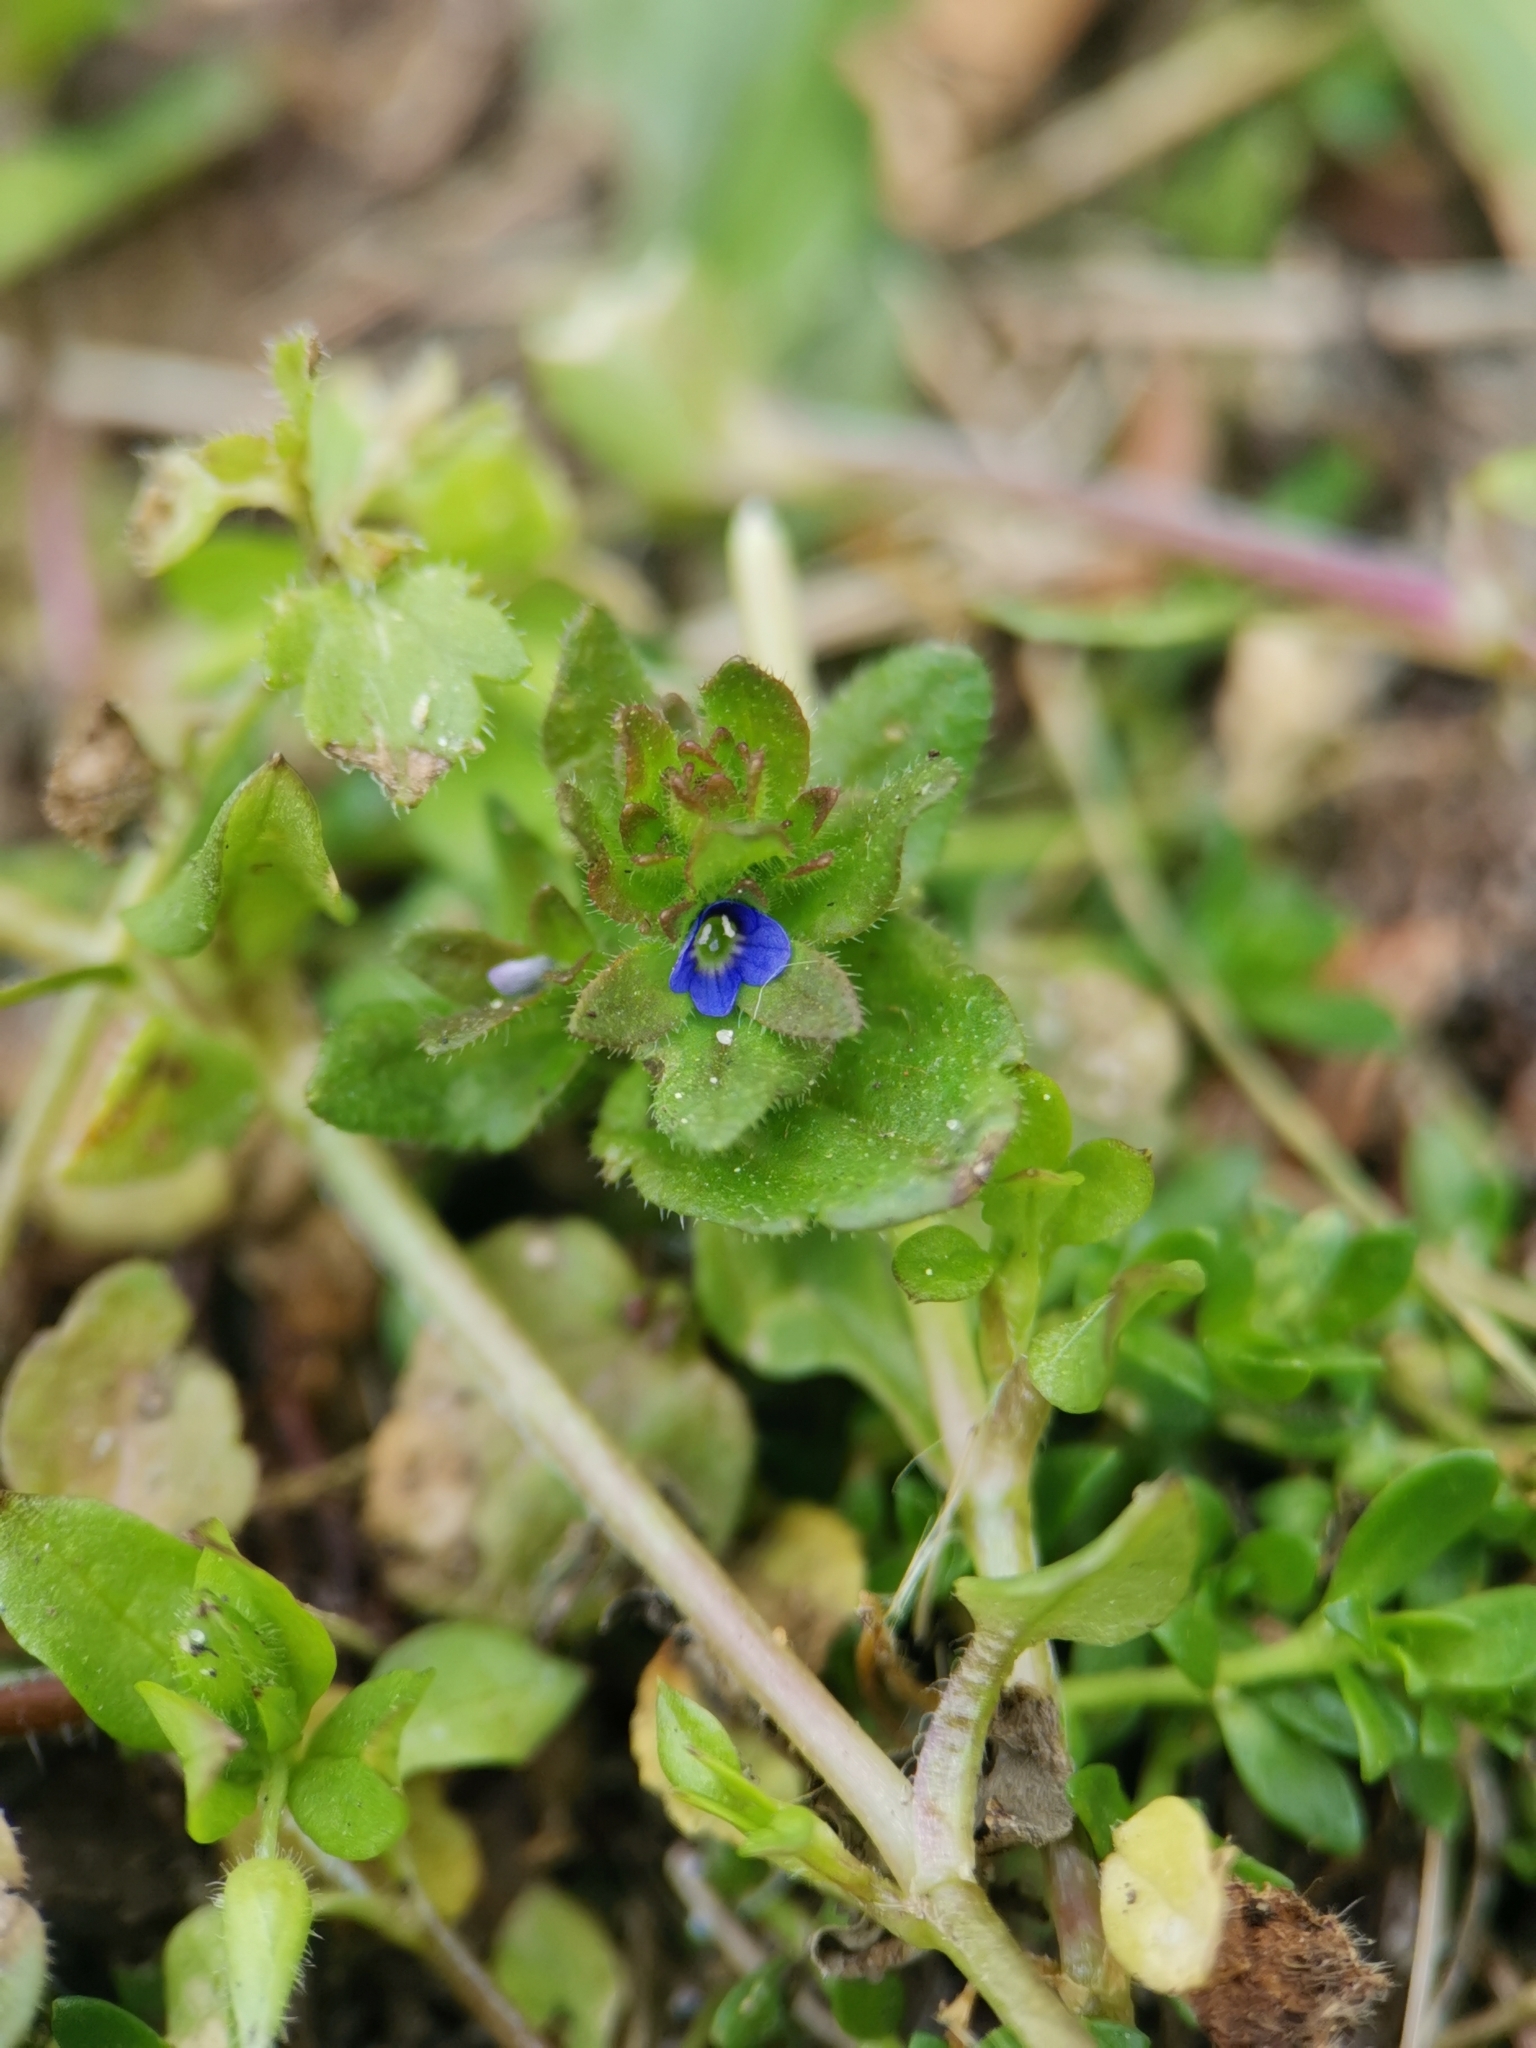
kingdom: Plantae
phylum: Tracheophyta
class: Magnoliopsida
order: Lamiales
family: Plantaginaceae
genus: Veronica
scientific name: Veronica arvensis
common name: Corn speedwell
